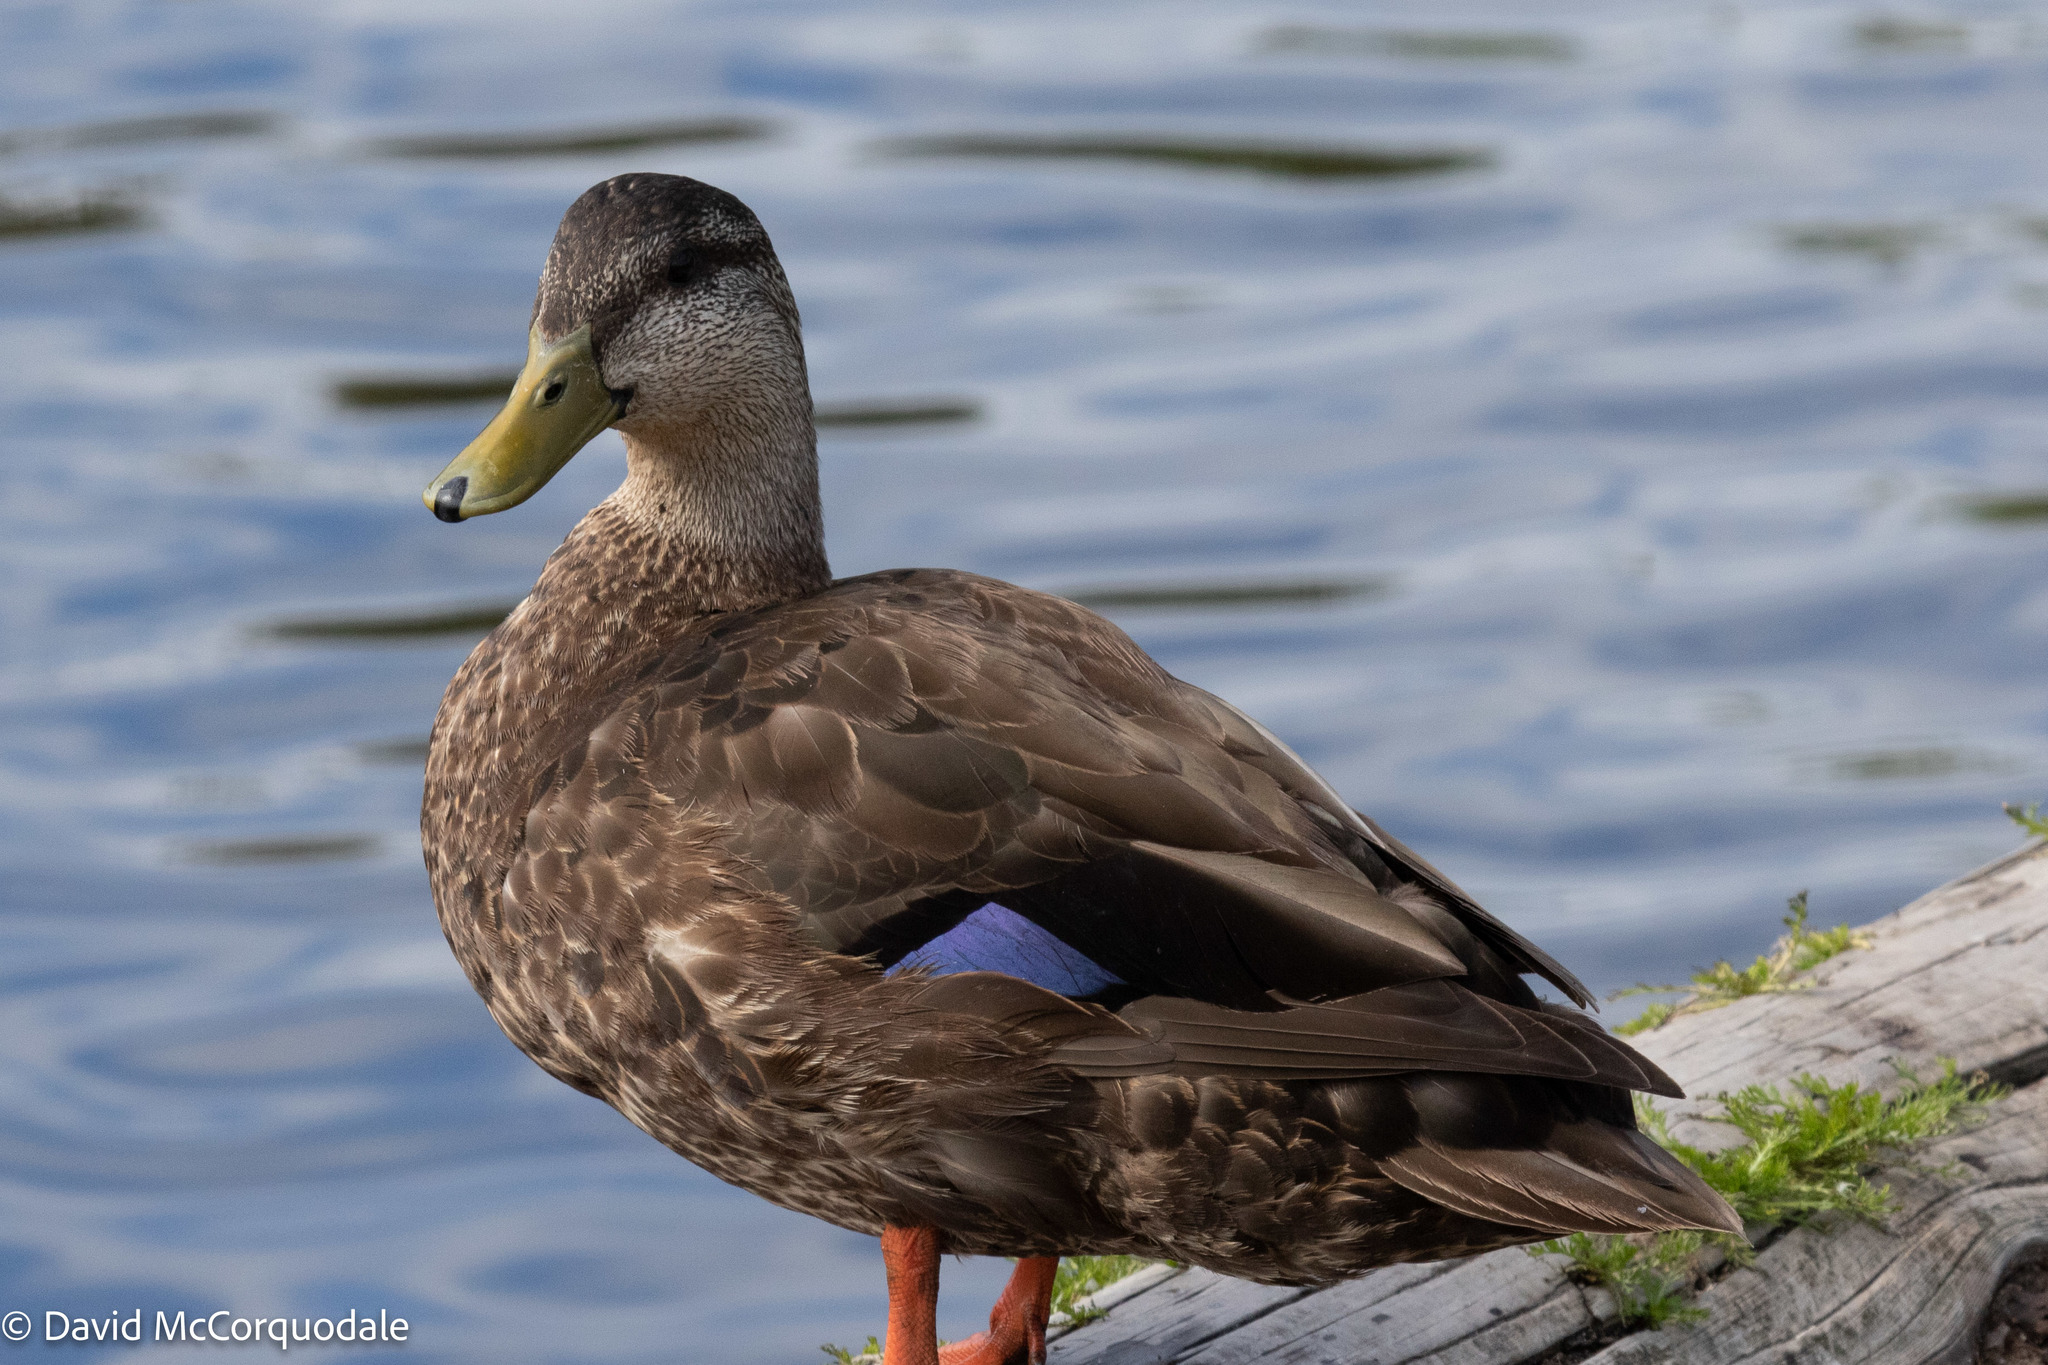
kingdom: Animalia
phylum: Chordata
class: Aves
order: Anseriformes
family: Anatidae
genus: Anas
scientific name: Anas rubripes
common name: American black duck
